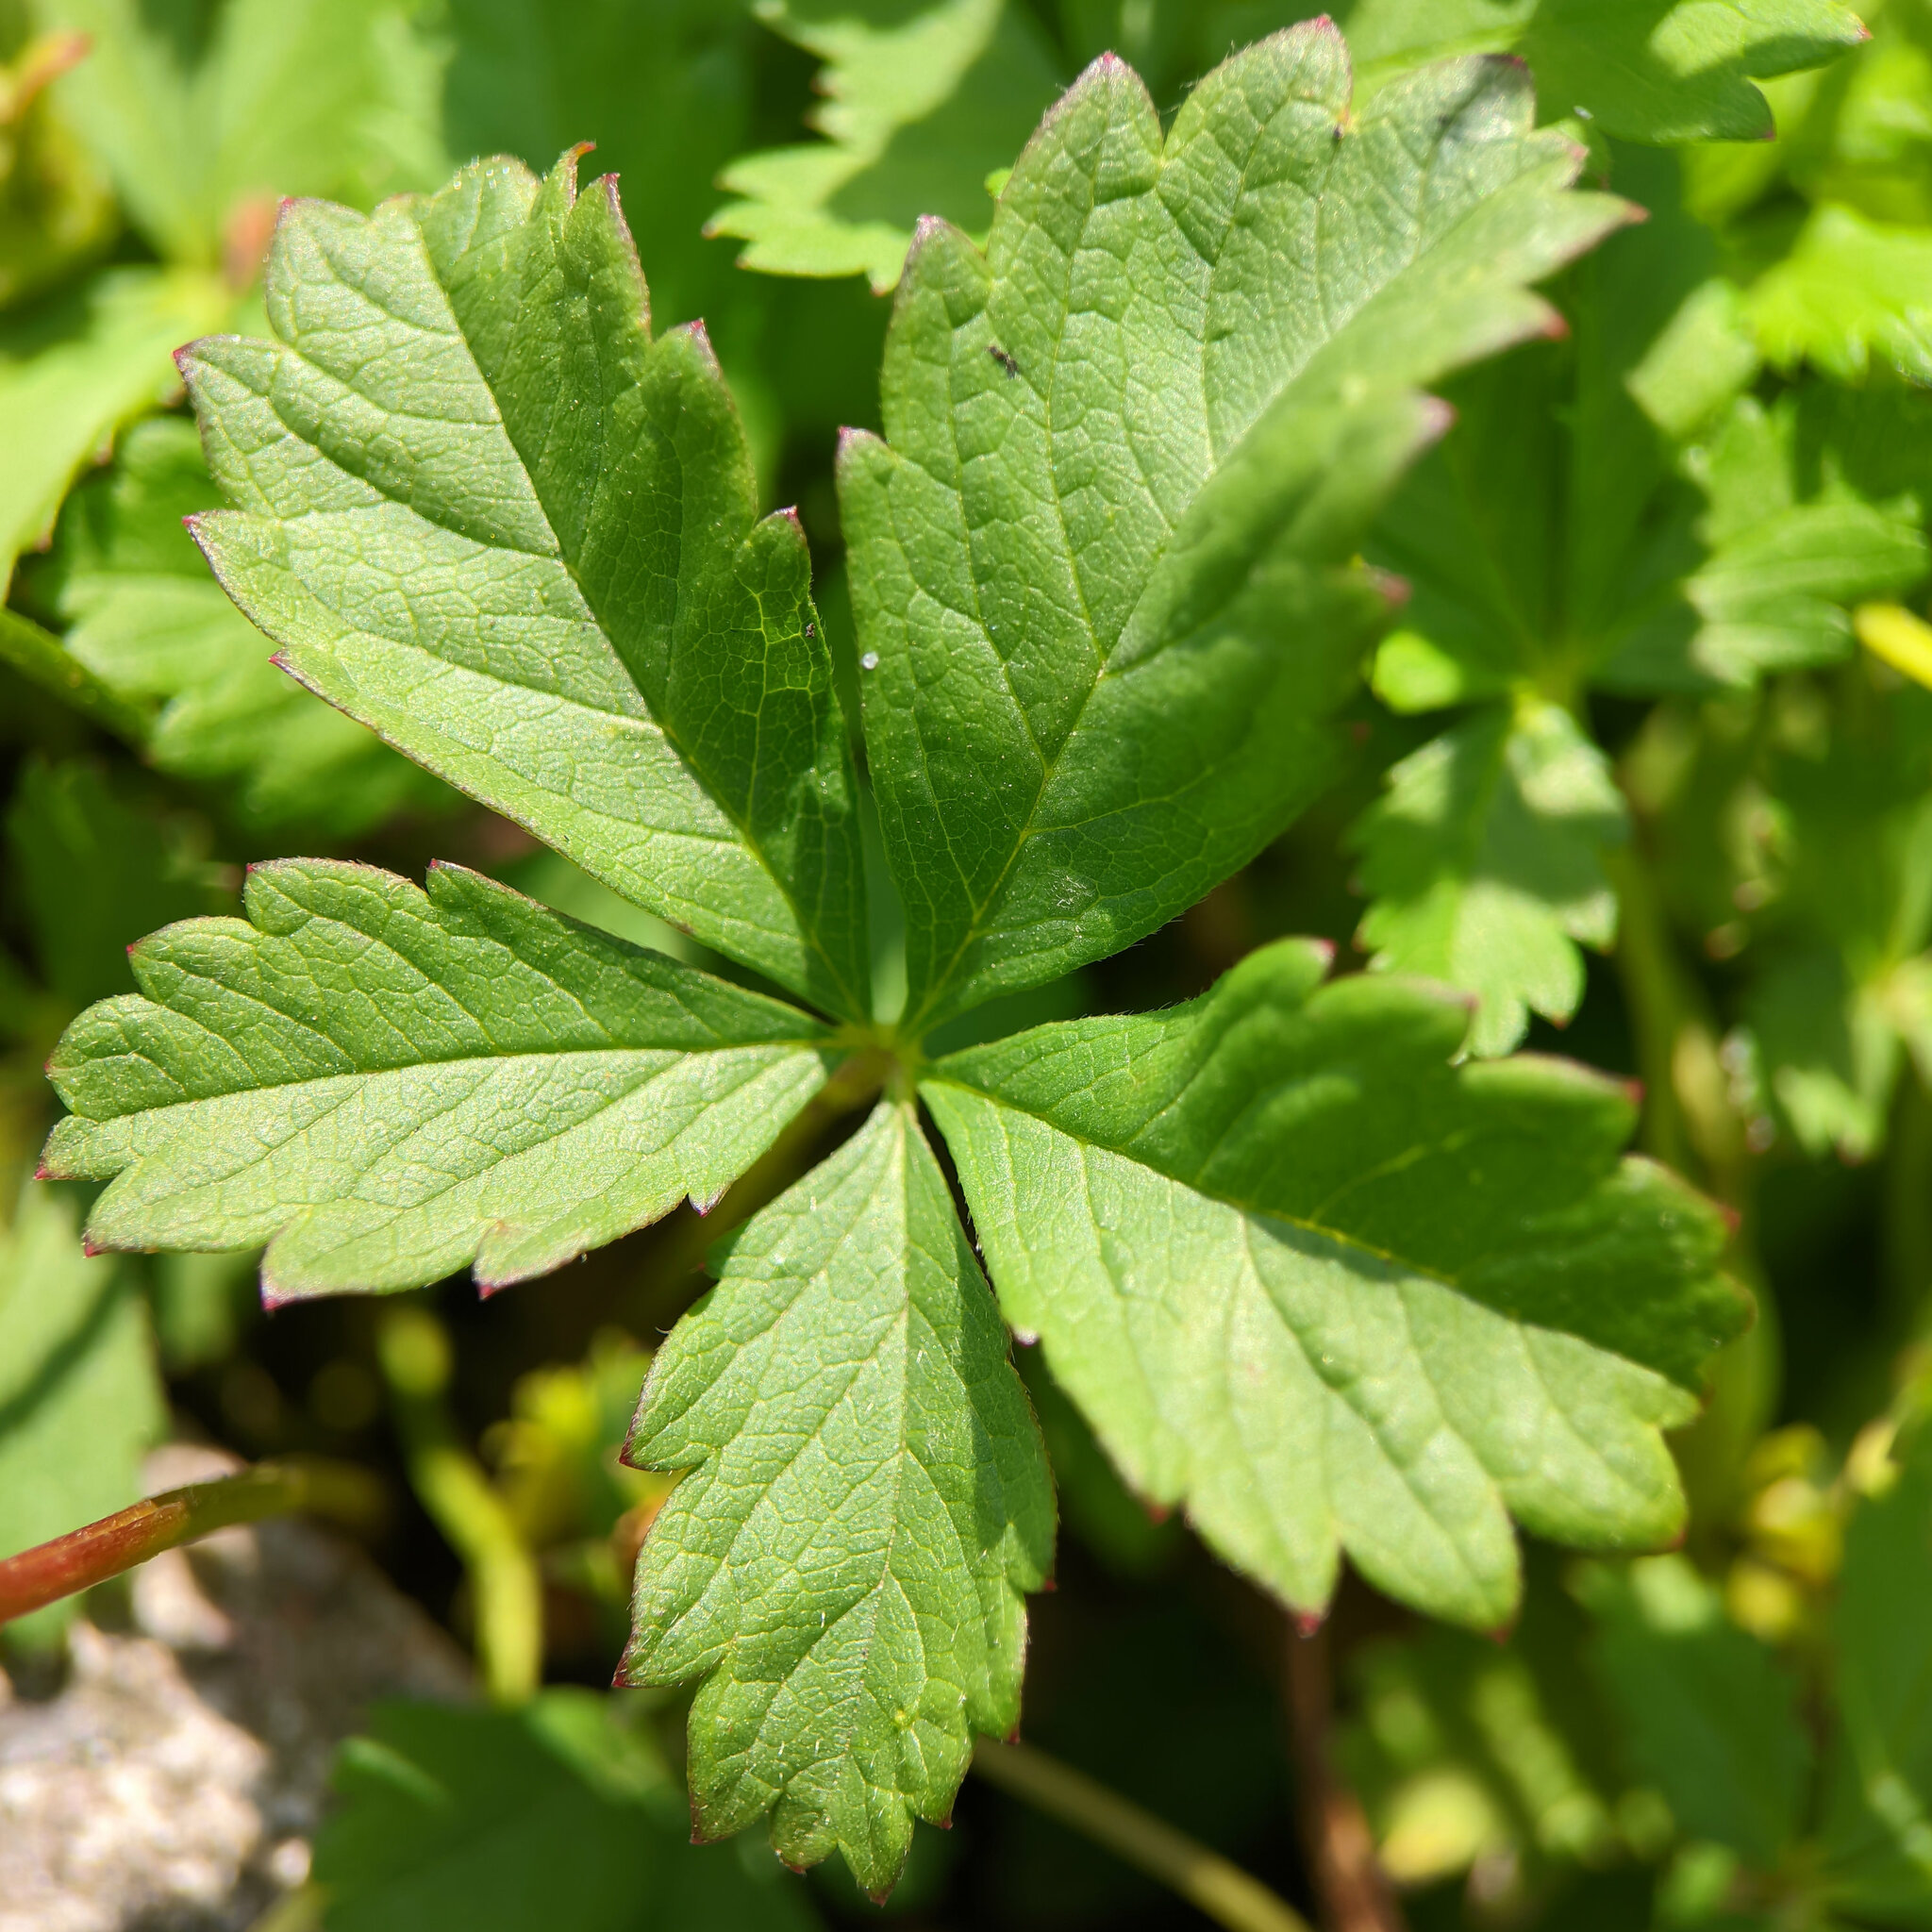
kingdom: Plantae
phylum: Tracheophyta
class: Magnoliopsida
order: Rosales
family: Rosaceae
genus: Potentilla
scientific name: Potentilla reptans
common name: Creeping cinquefoil
